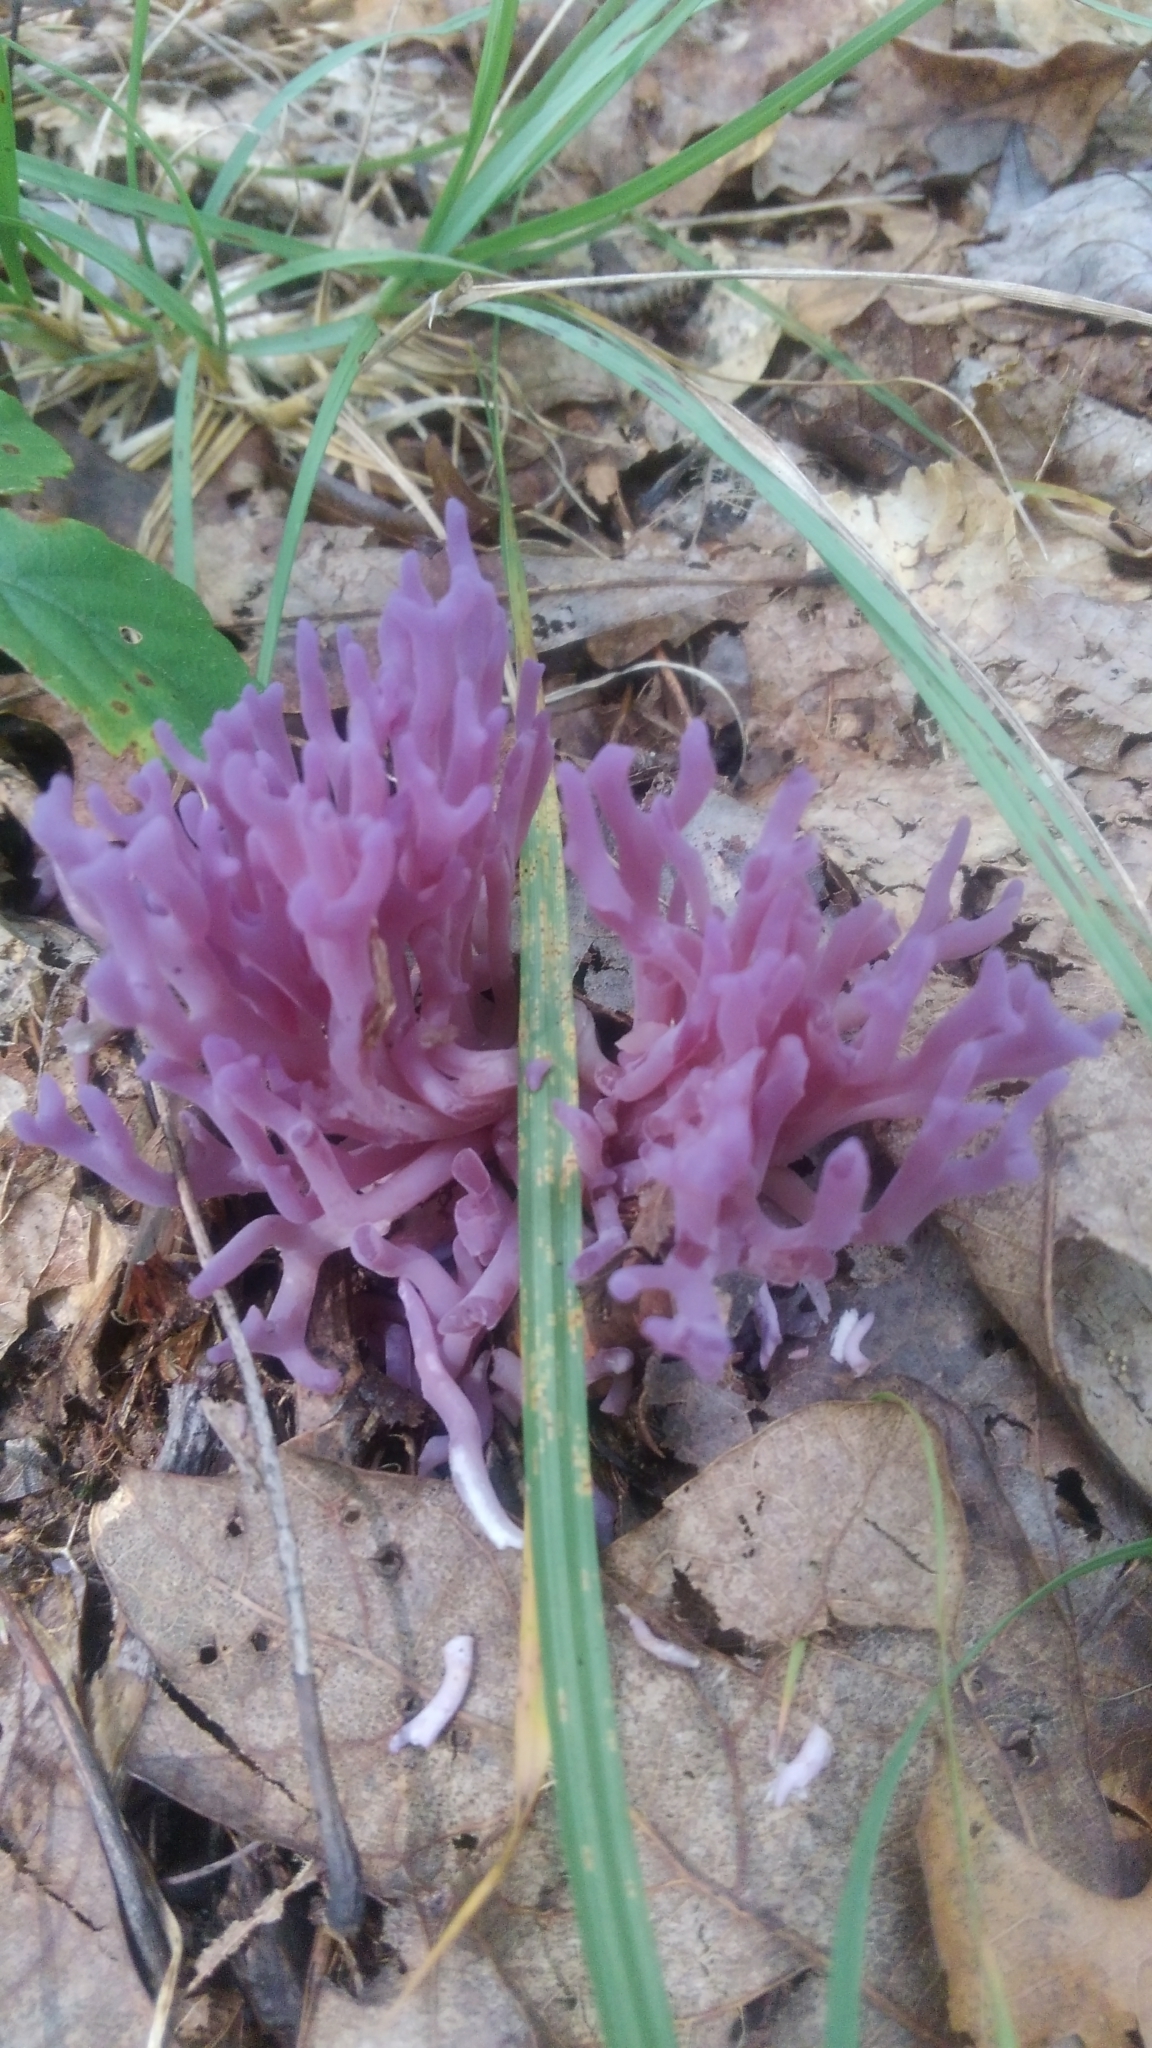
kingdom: Fungi
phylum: Basidiomycota
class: Agaricomycetes
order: Agaricales
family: Clavariaceae
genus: Clavaria
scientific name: Clavaria zollingeri
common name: Violet coral
